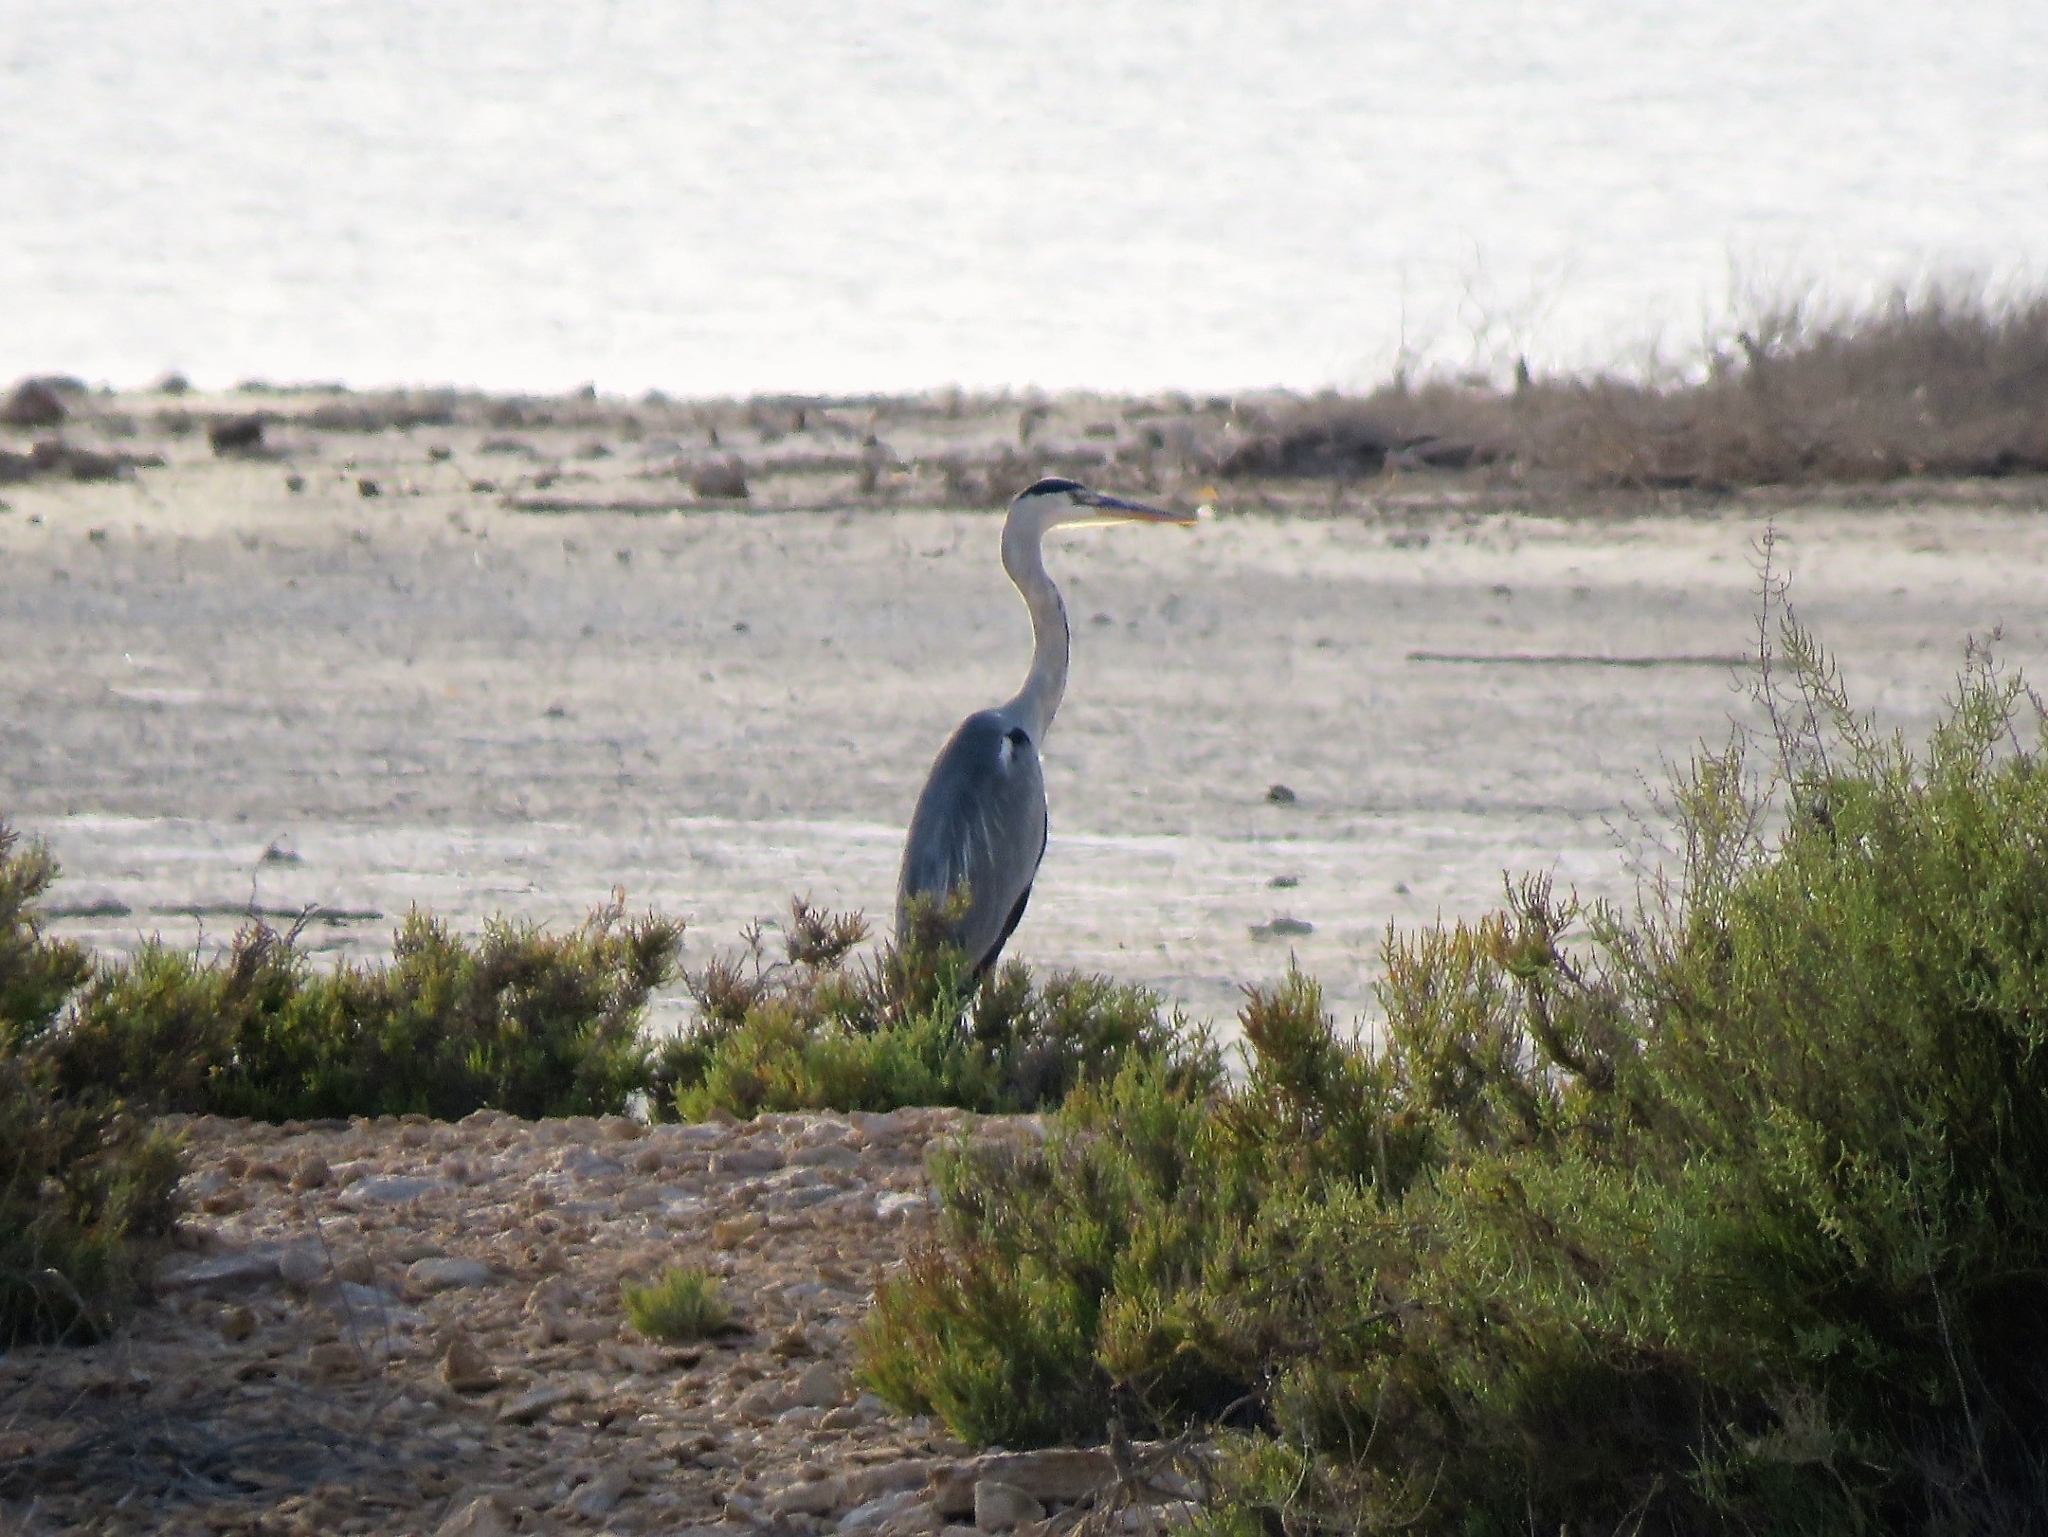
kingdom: Animalia
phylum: Chordata
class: Aves
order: Pelecaniformes
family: Ardeidae
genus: Ardea
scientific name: Ardea cinerea
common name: Grey heron
